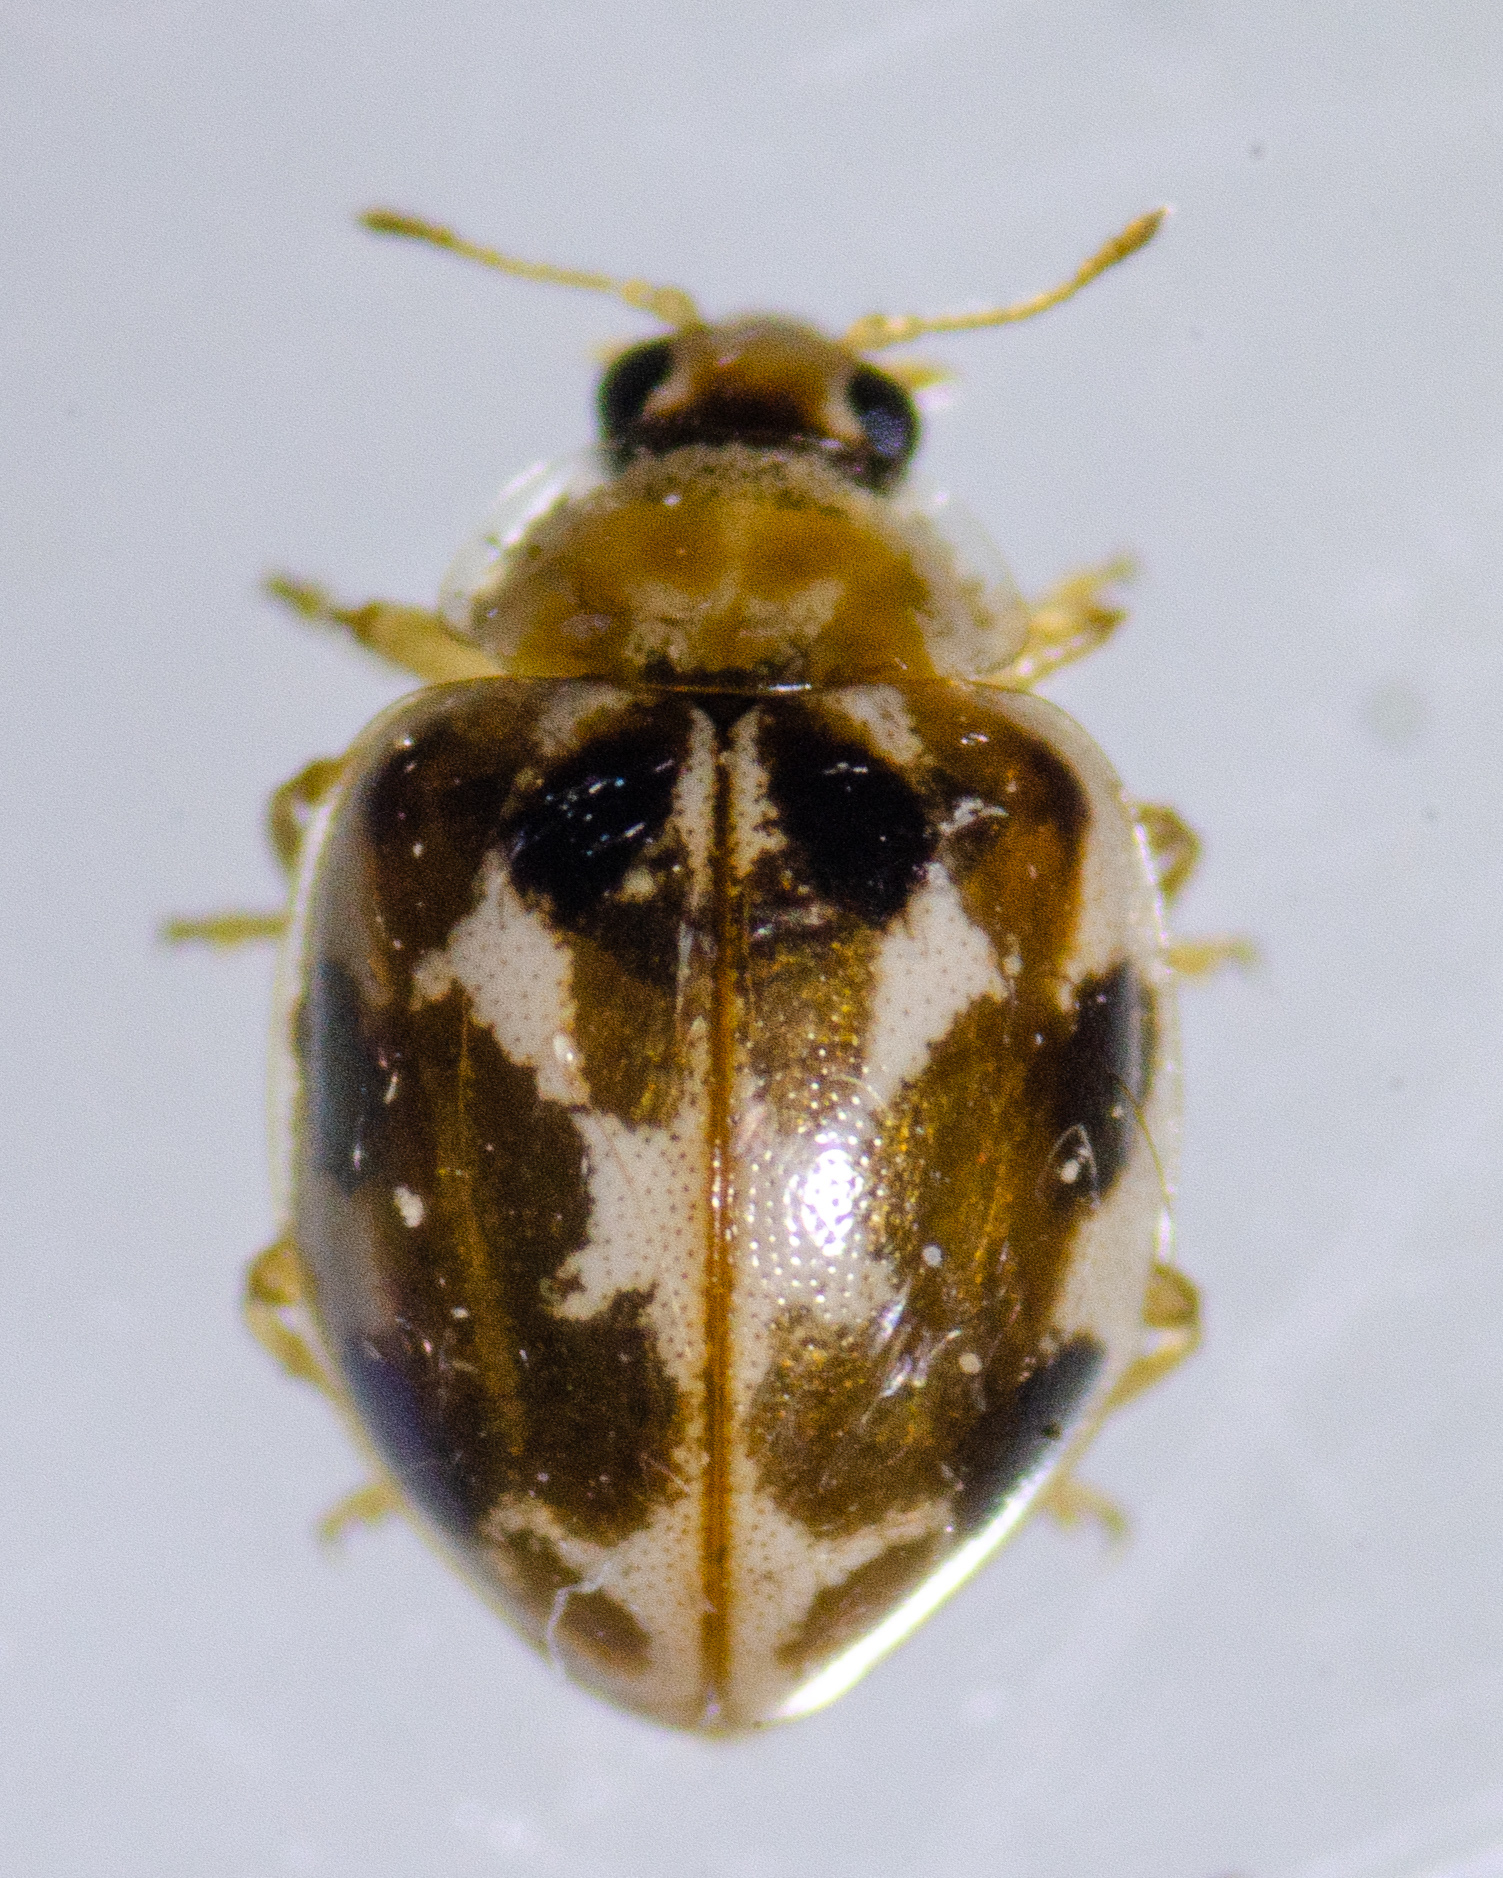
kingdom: Animalia
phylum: Arthropoda
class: Insecta
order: Coleoptera
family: Coccinellidae
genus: Psyllobora
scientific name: Psyllobora vigintimaculata
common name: Ladybird beetle
